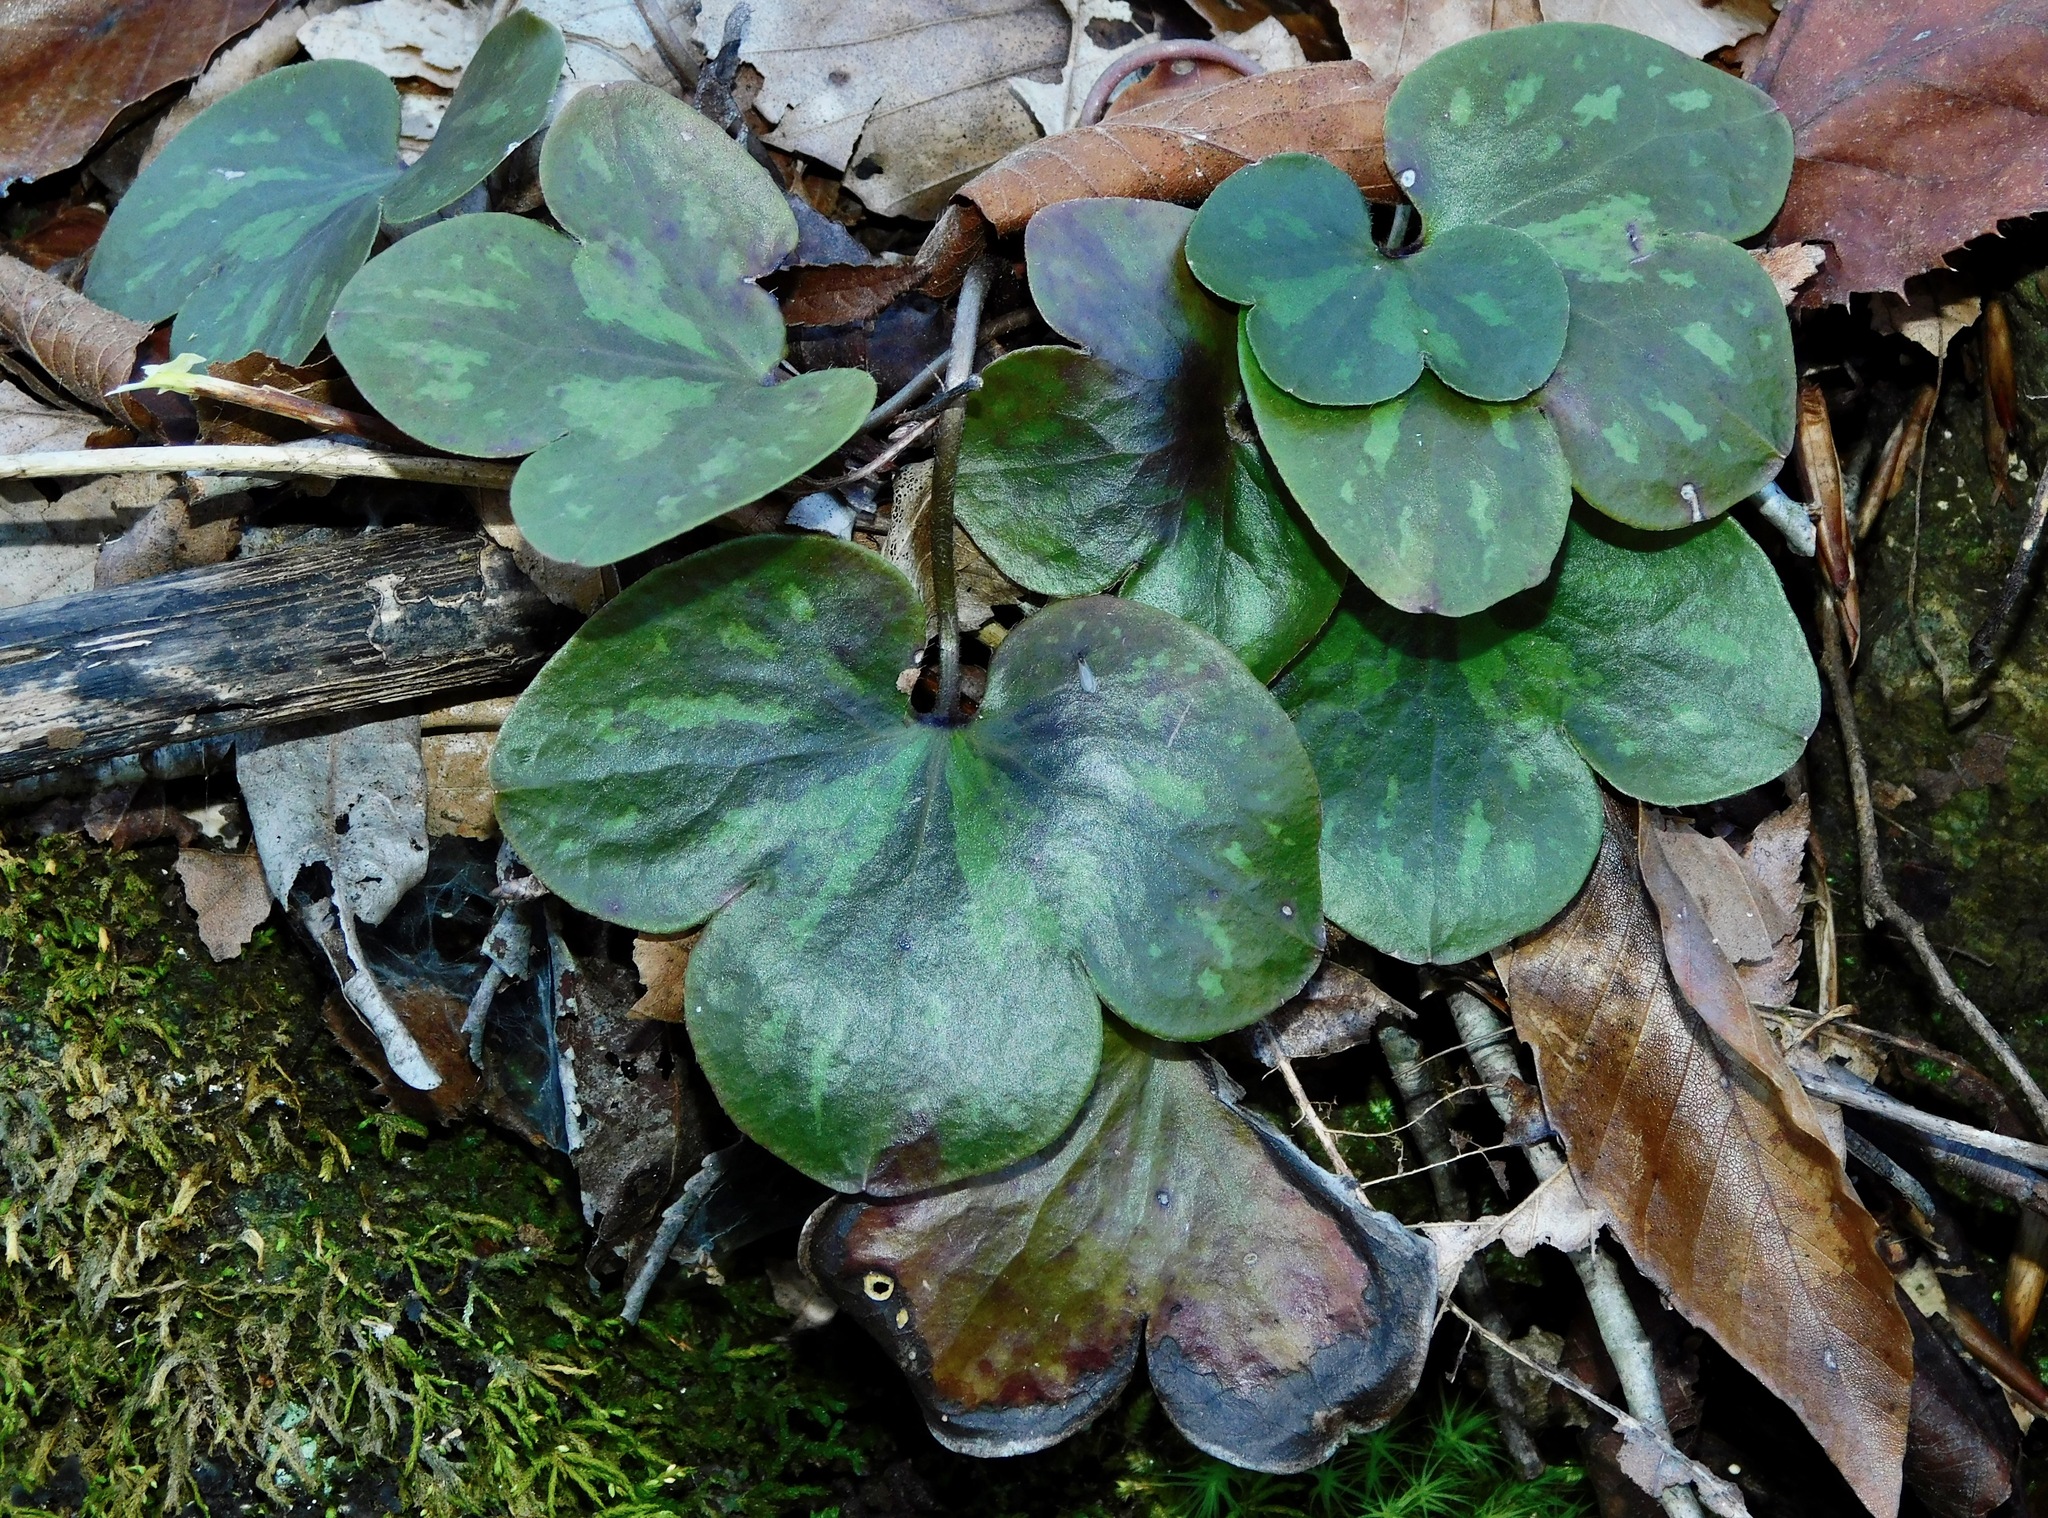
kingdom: Plantae
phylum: Tracheophyta
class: Magnoliopsida
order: Ranunculales
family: Ranunculaceae
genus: Hepatica
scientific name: Hepatica americana
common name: American hepatica
